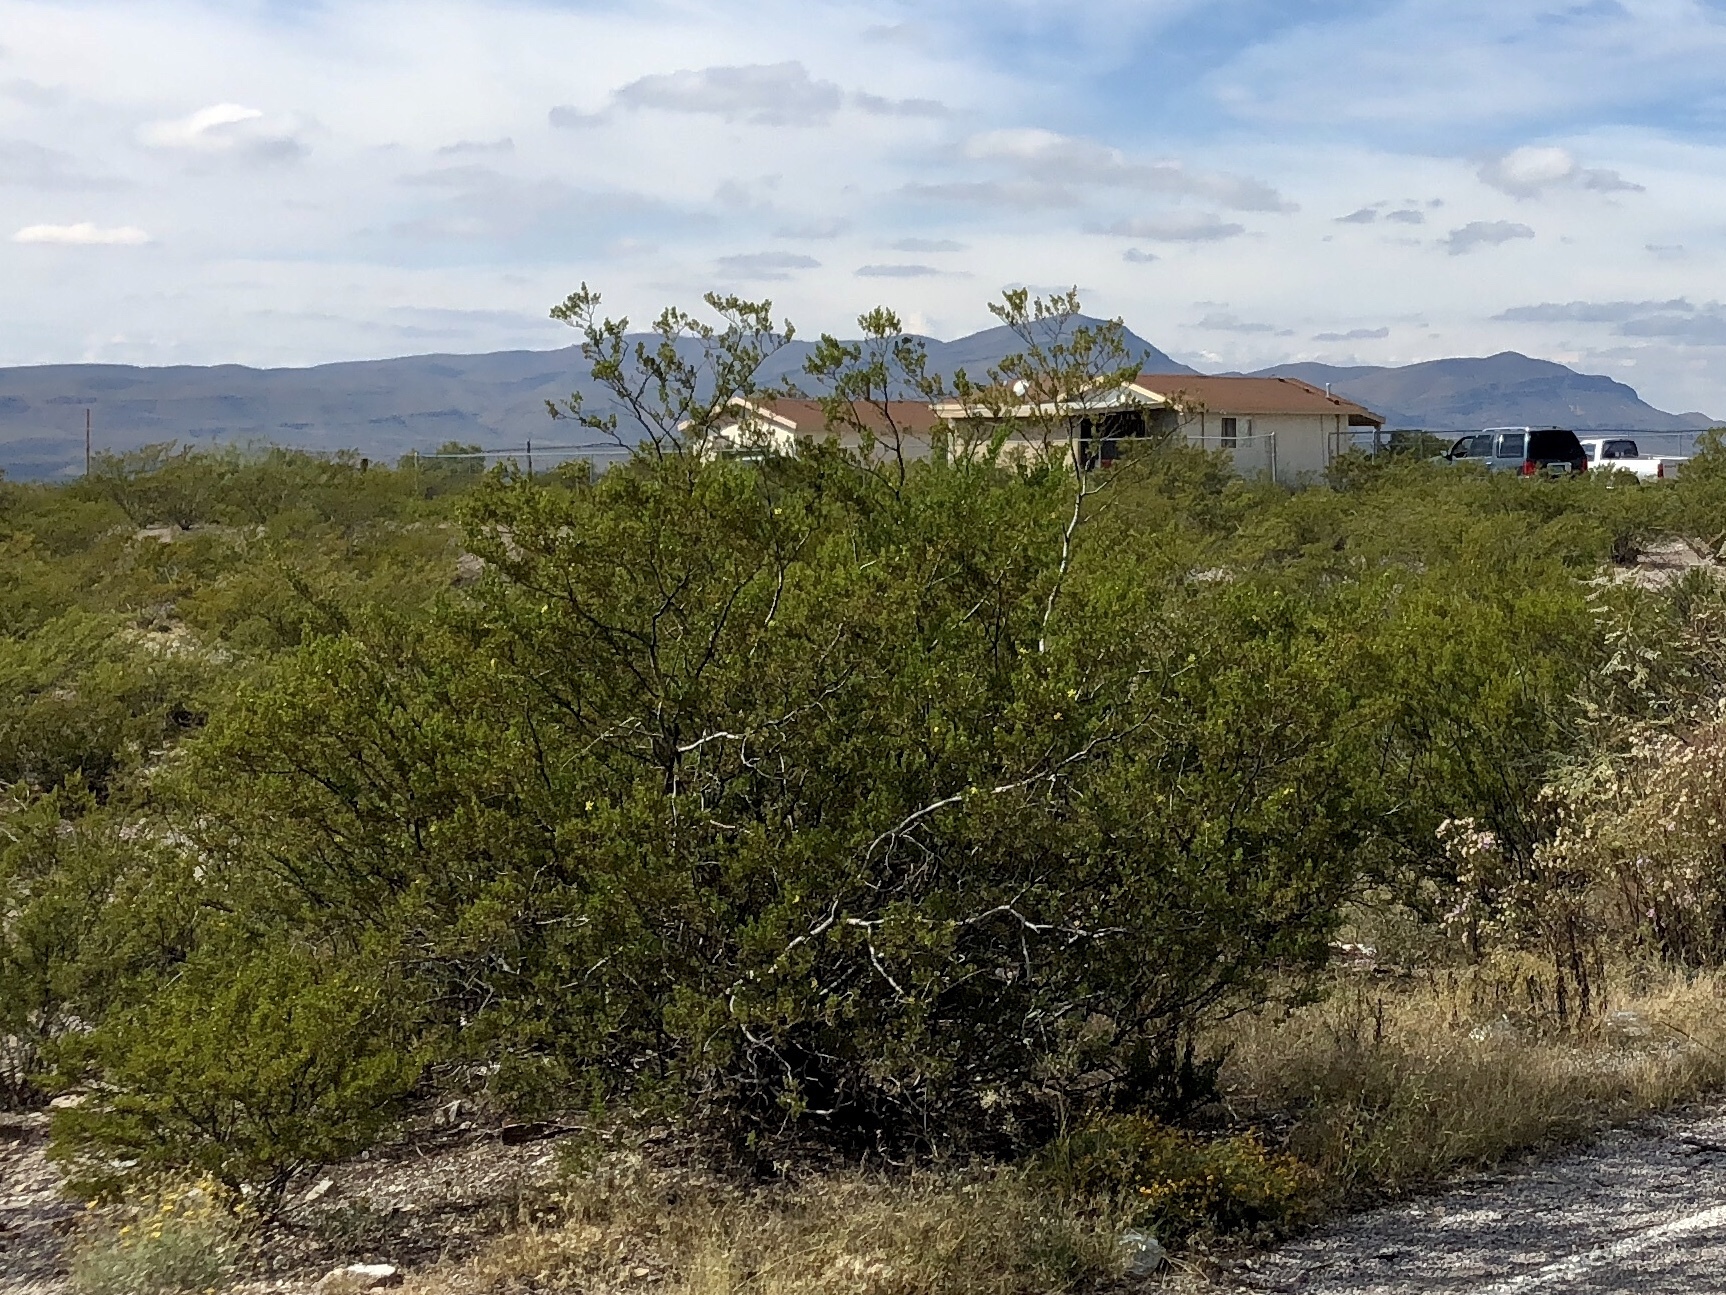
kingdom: Plantae
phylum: Tracheophyta
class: Magnoliopsida
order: Zygophyllales
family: Zygophyllaceae
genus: Larrea
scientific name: Larrea tridentata
